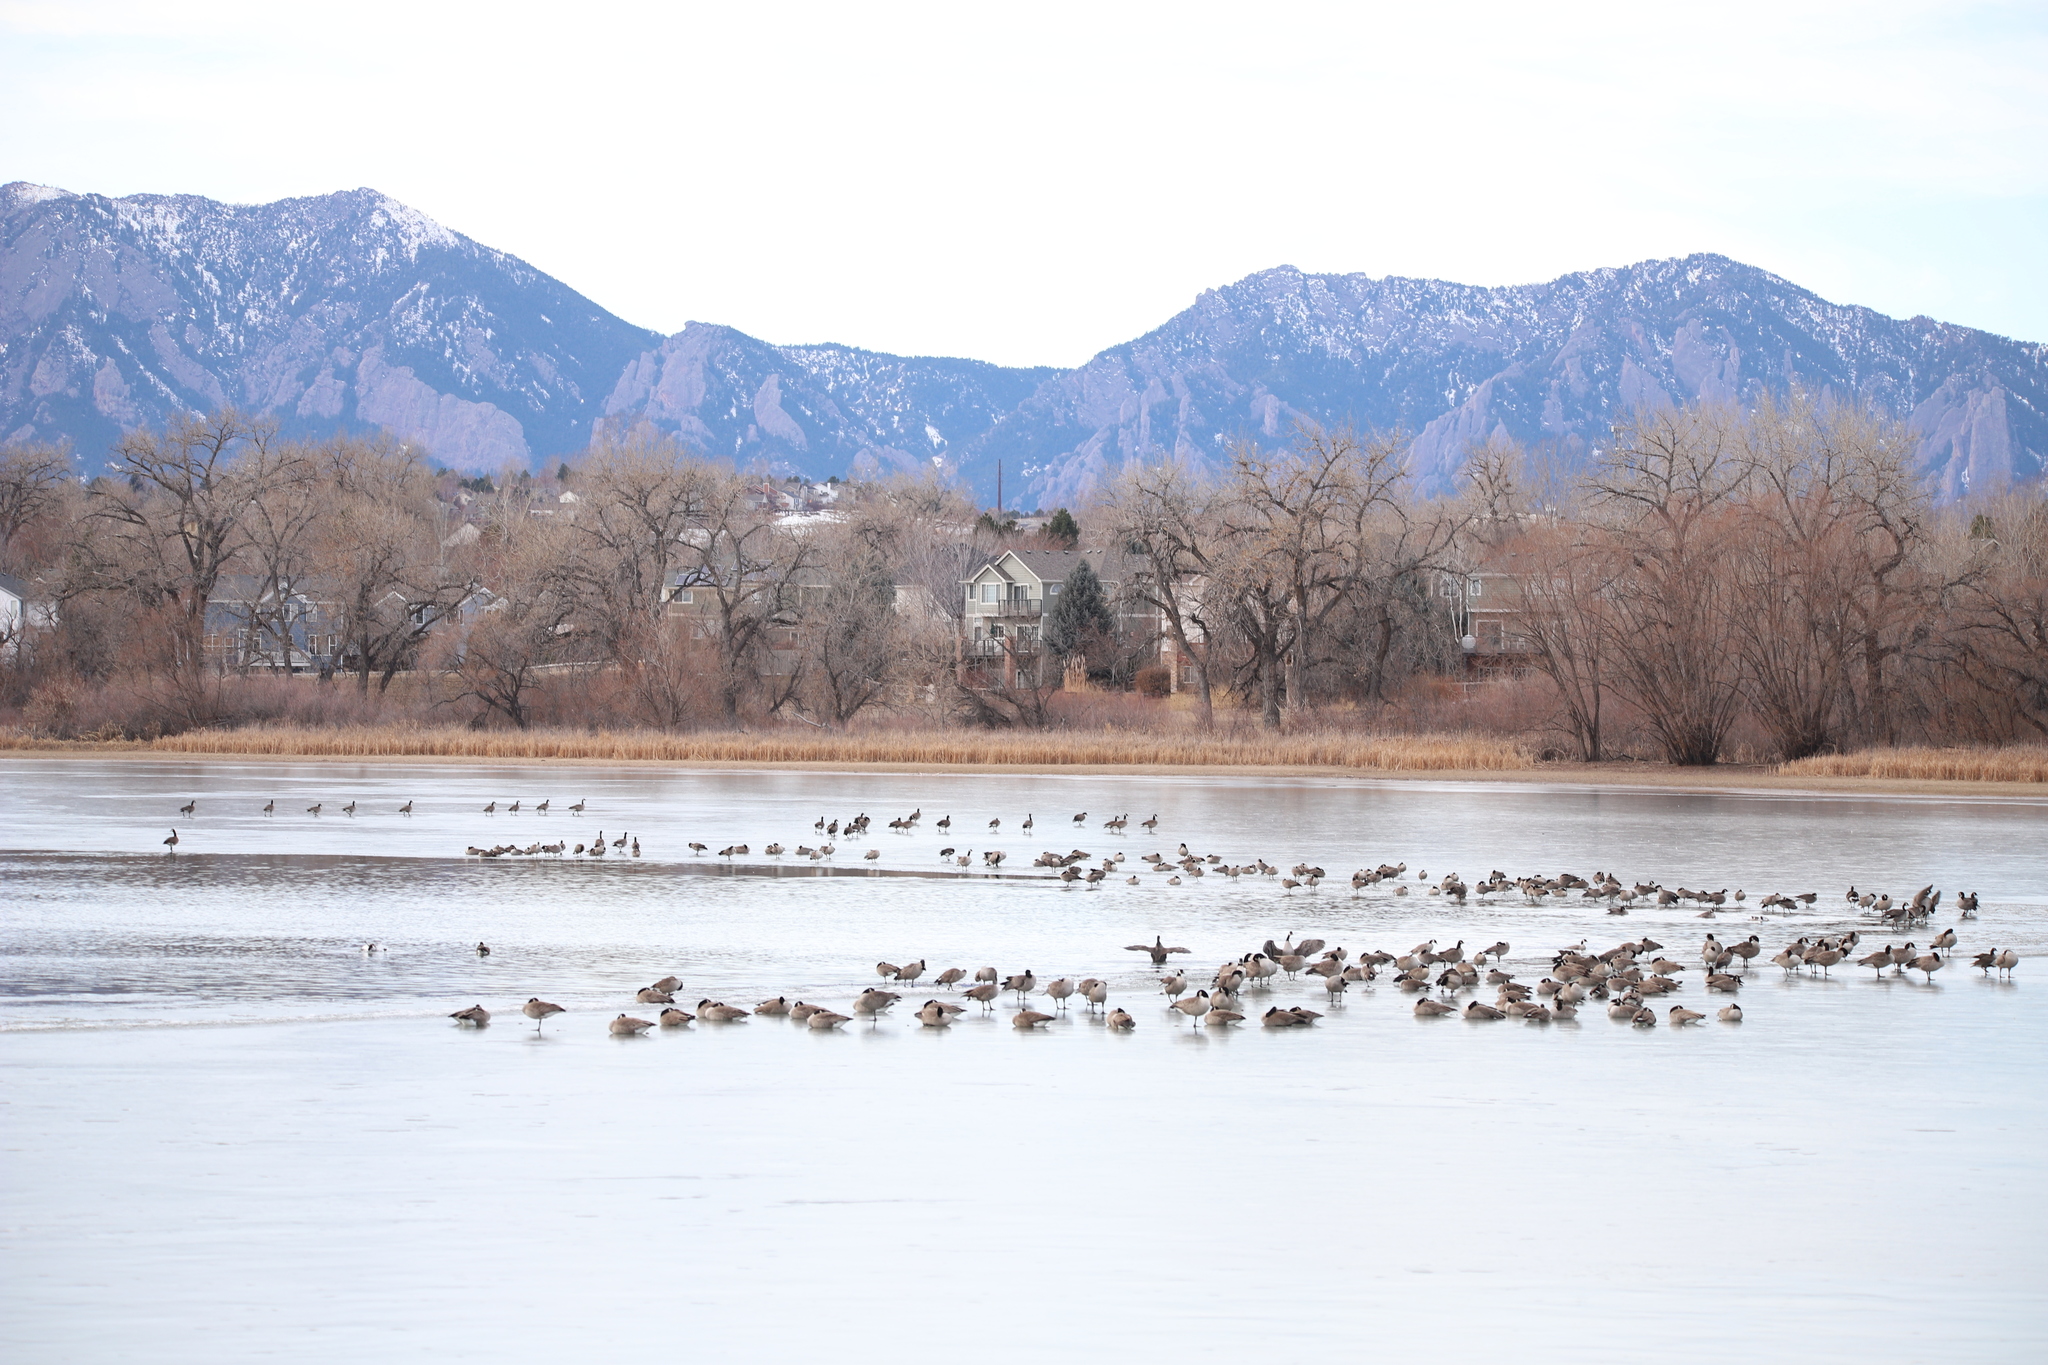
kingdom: Animalia
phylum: Chordata
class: Aves
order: Anseriformes
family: Anatidae
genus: Branta
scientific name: Branta canadensis
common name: Canada goose
